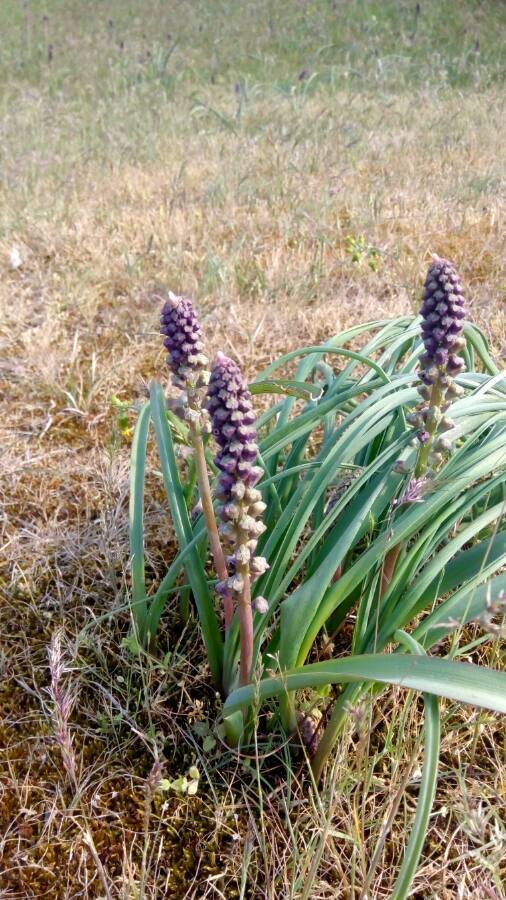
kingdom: Plantae
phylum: Tracheophyta
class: Liliopsida
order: Asparagales
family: Asparagaceae
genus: Muscari
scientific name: Muscari comosum
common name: Tassel hyacinth
